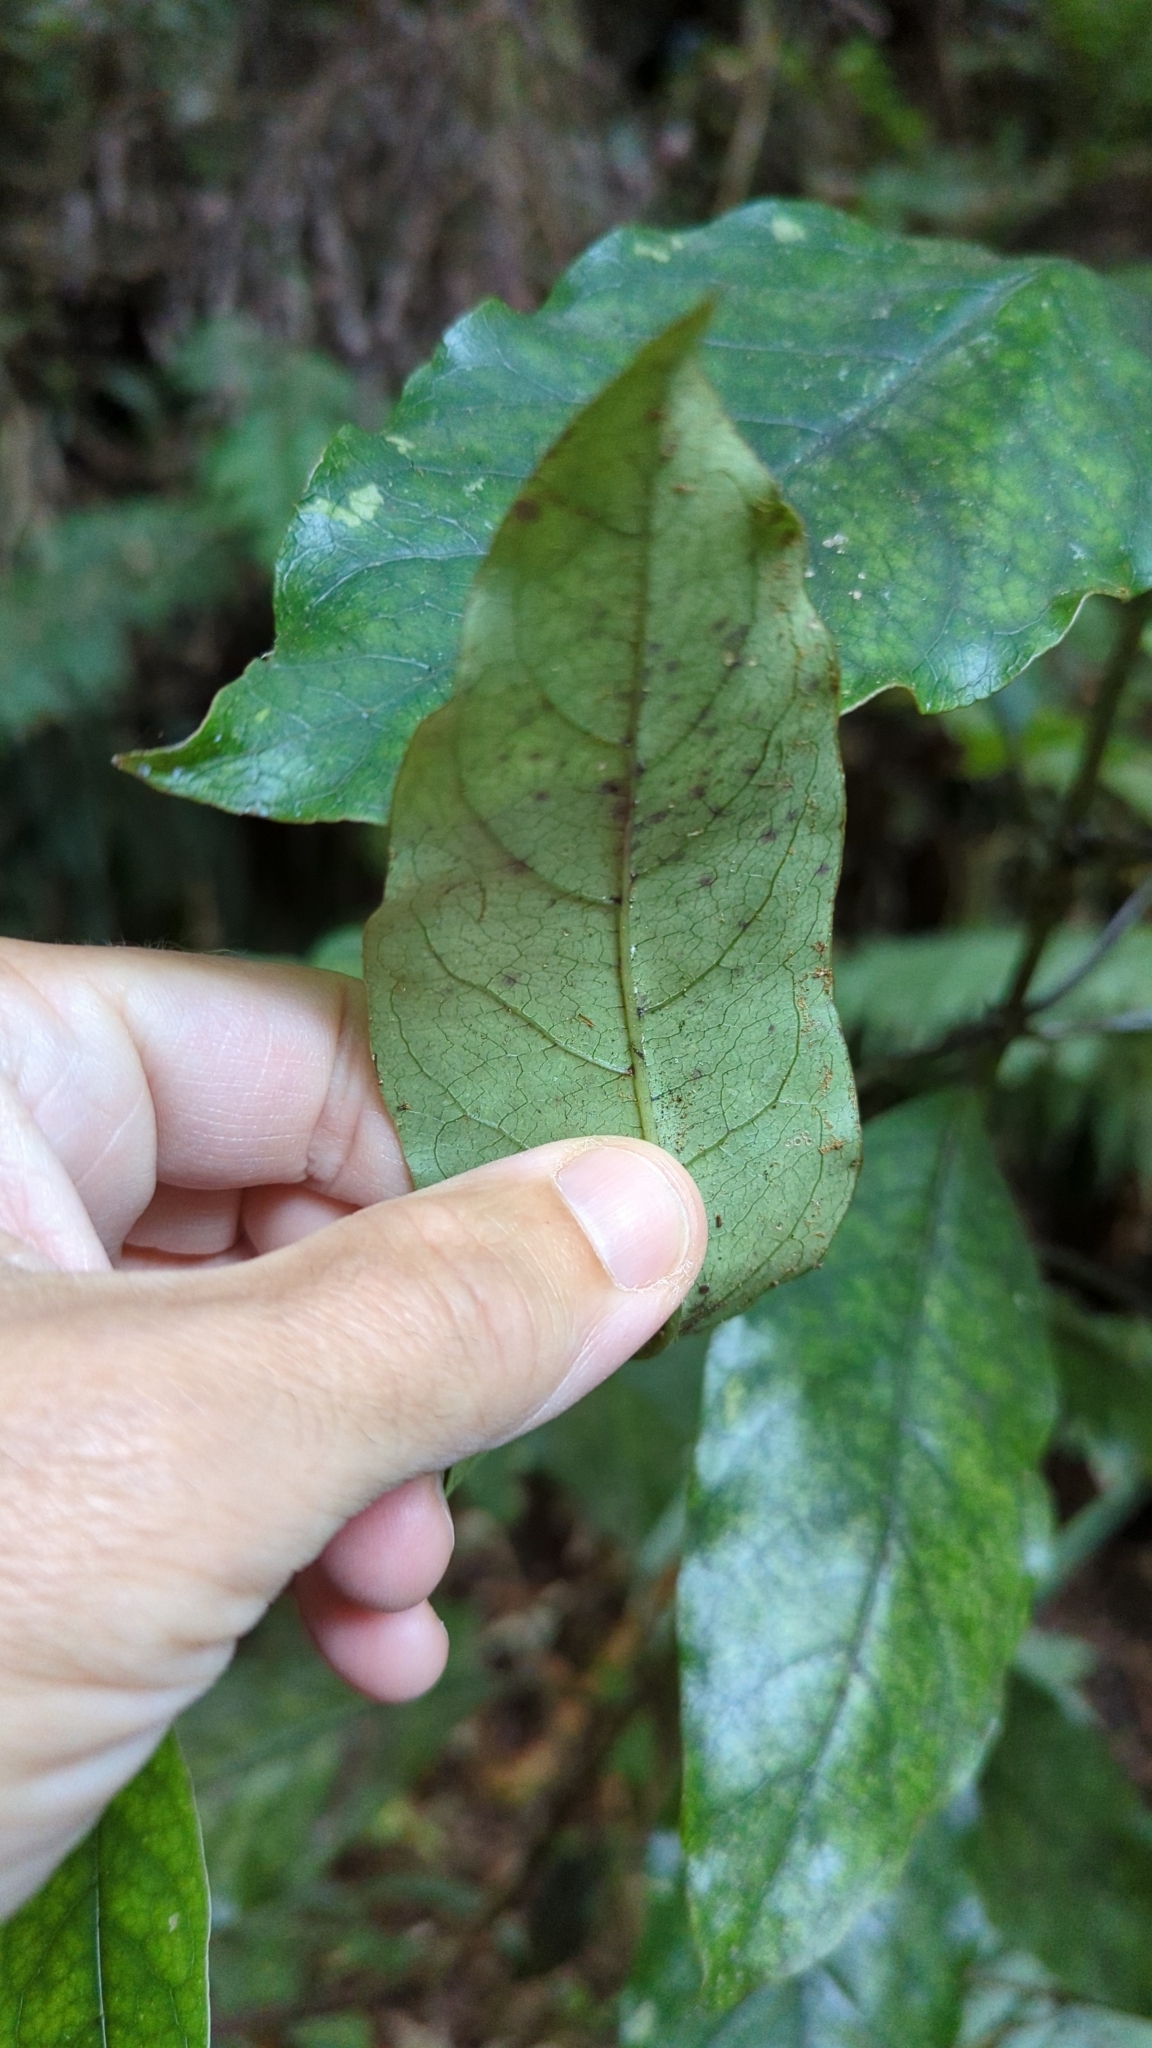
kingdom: Plantae
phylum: Tracheophyta
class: Magnoliopsida
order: Gentianales
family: Rubiaceae
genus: Coprosma
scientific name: Coprosma autumnalis
